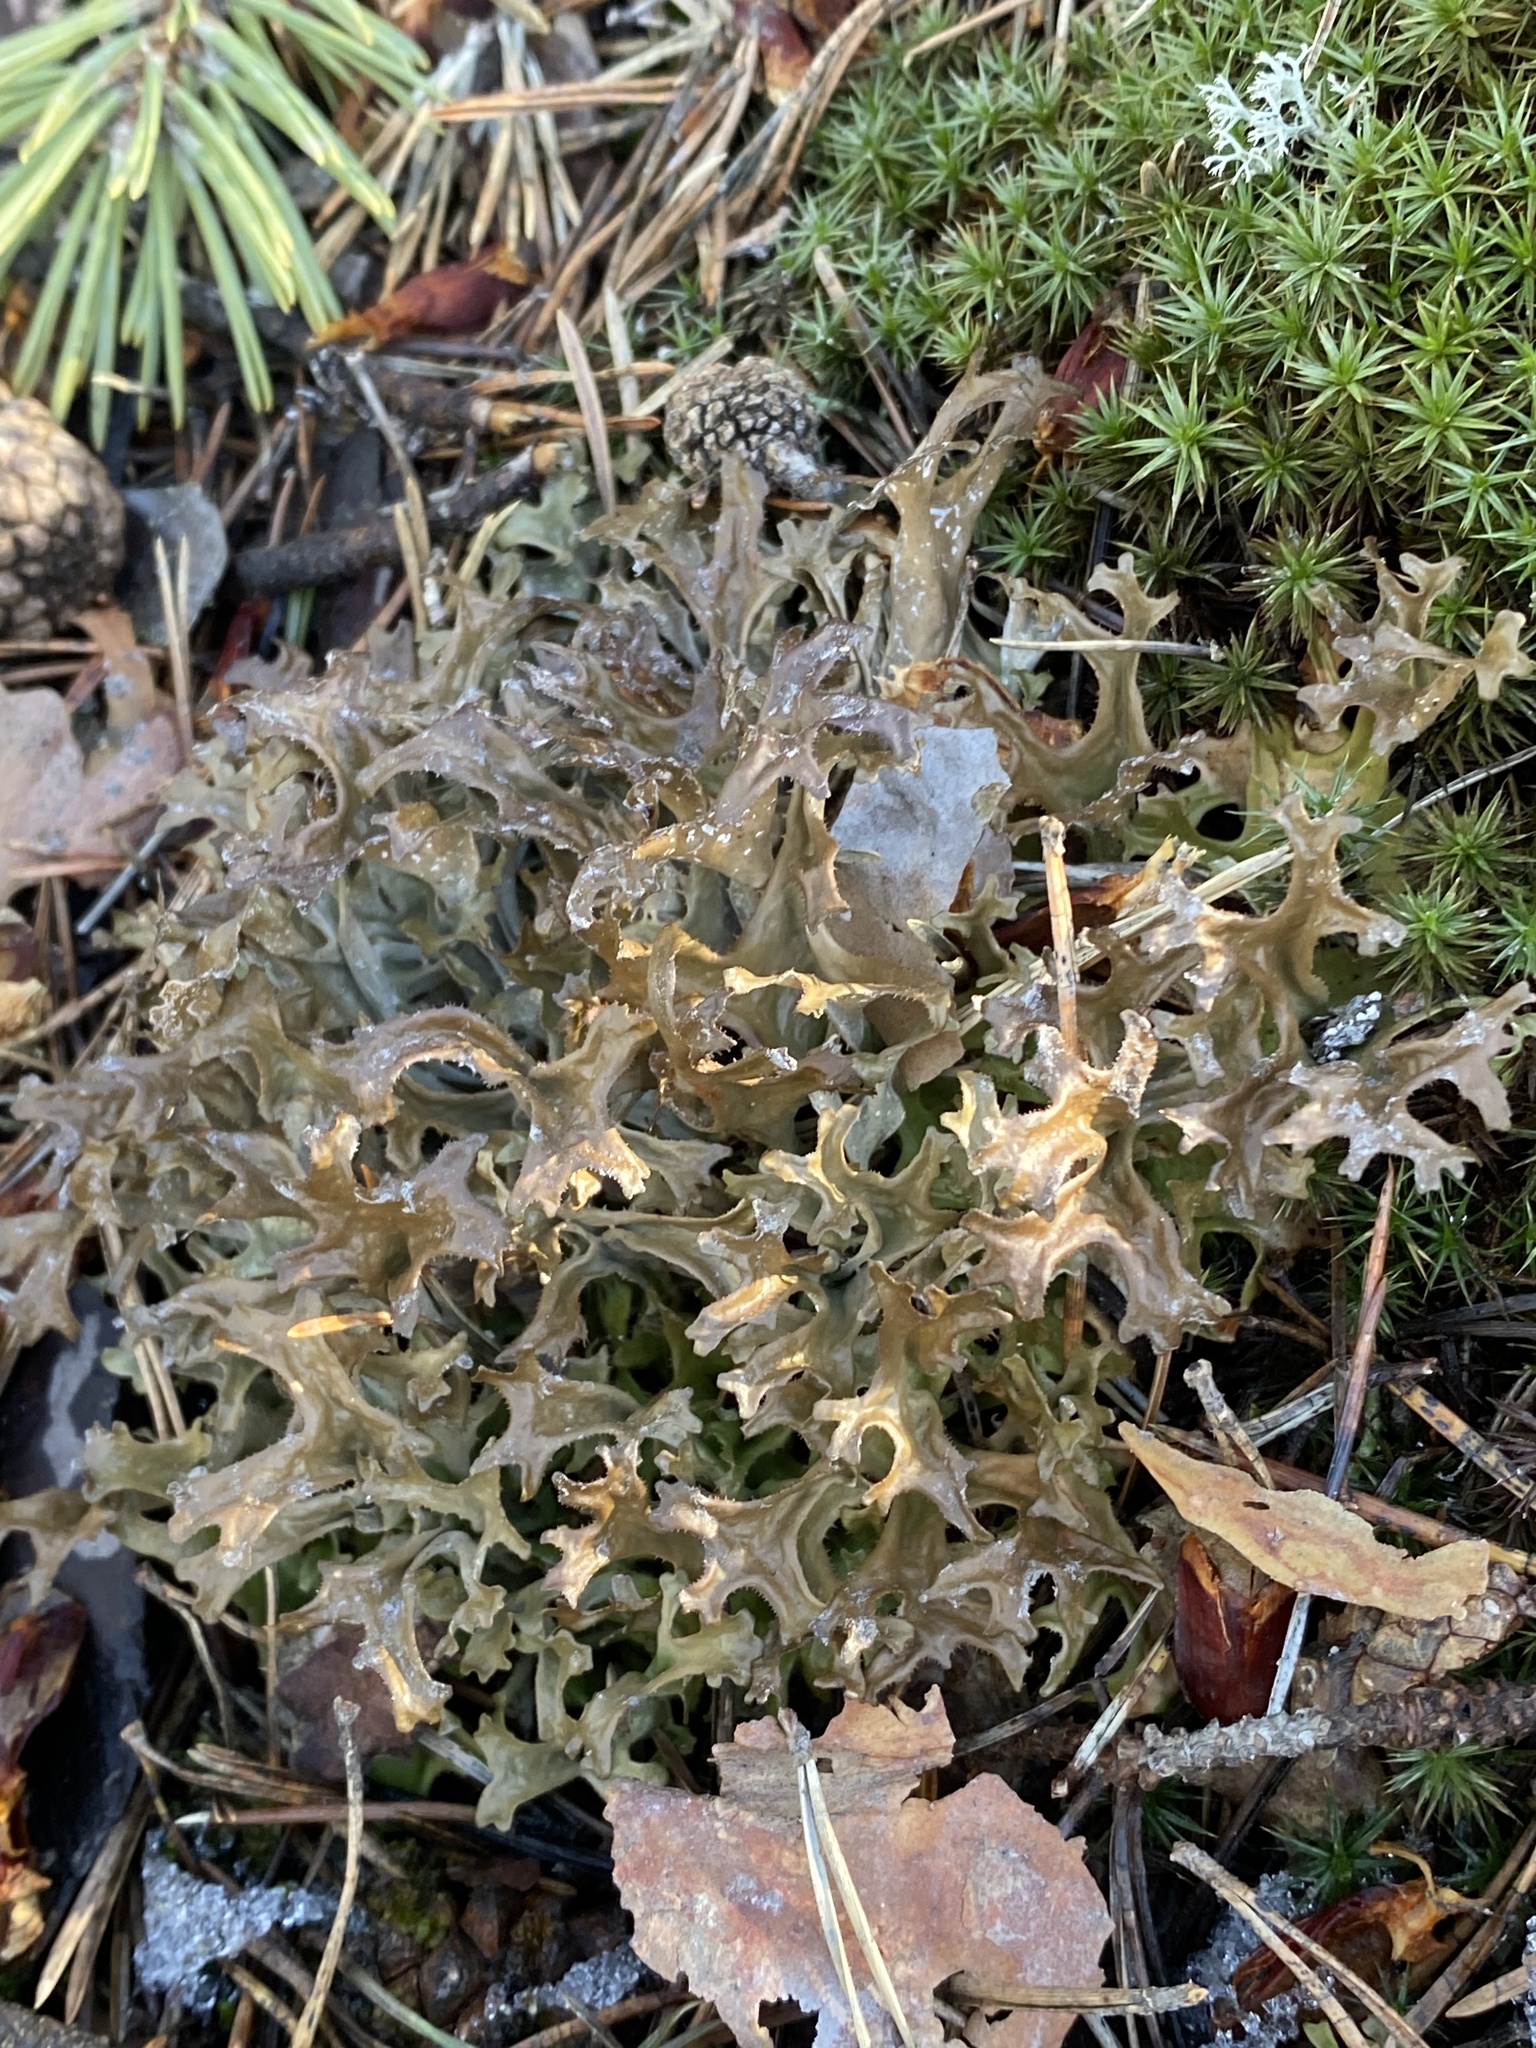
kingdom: Fungi
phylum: Ascomycota
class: Lecanoromycetes
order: Lecanorales
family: Parmeliaceae
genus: Cetraria
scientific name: Cetraria islandica
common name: Iceland lichen
